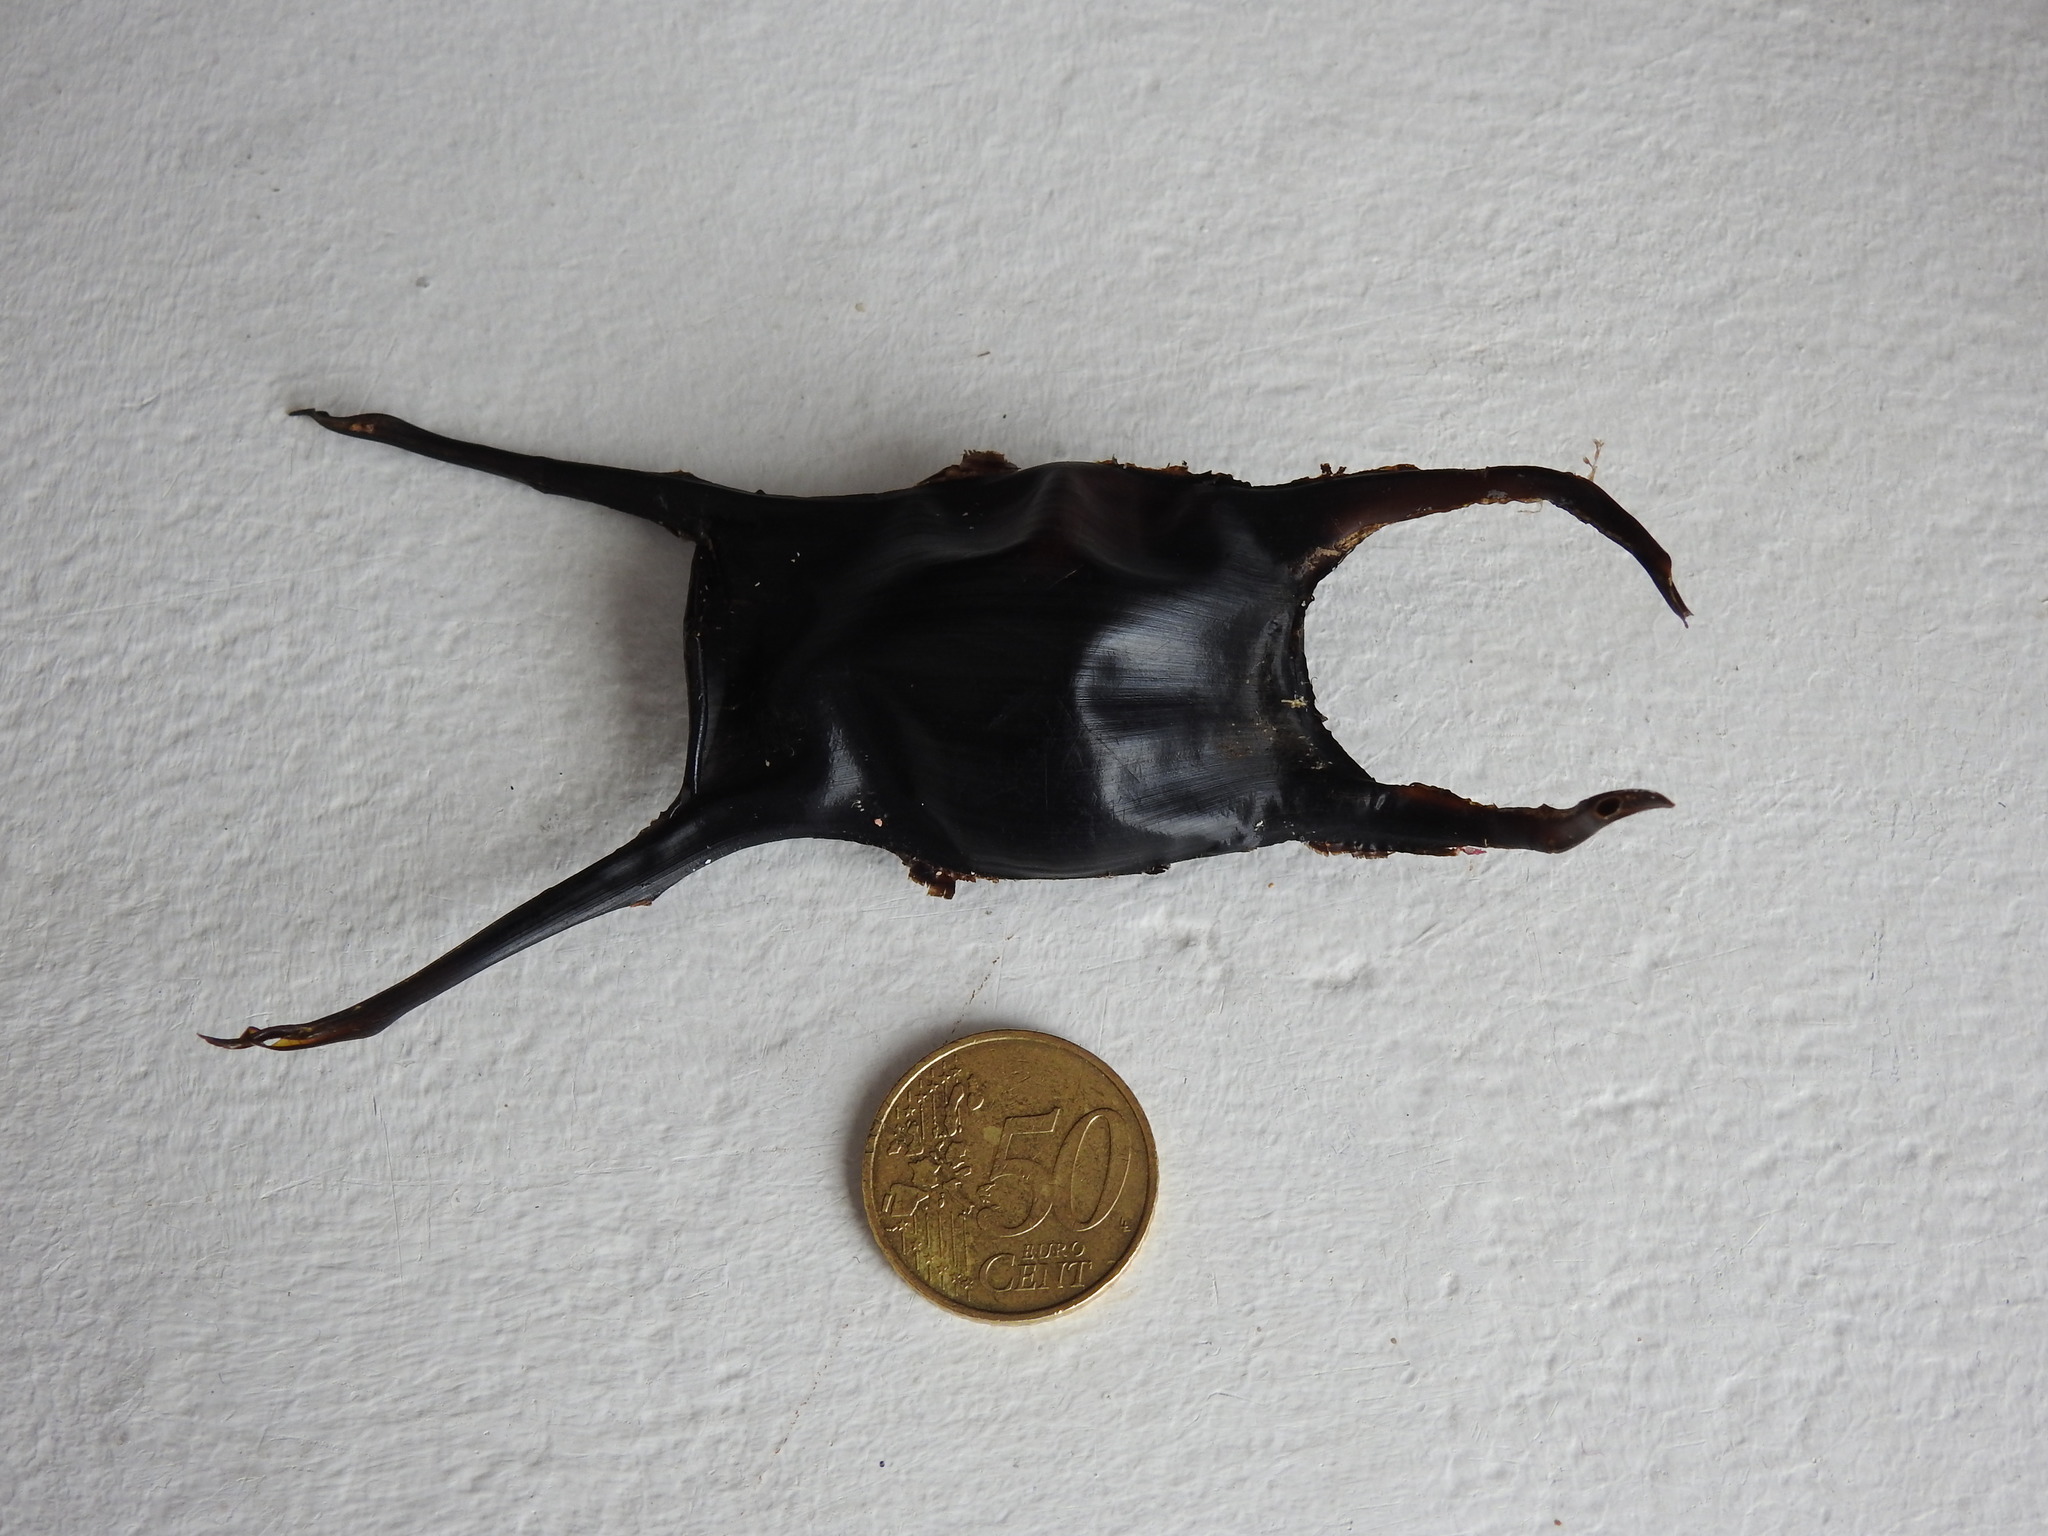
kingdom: Animalia
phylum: Chordata
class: Elasmobranchii
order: Rajiformes
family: Rajidae
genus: Raja
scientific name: Raja montagui
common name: Spotted ray
